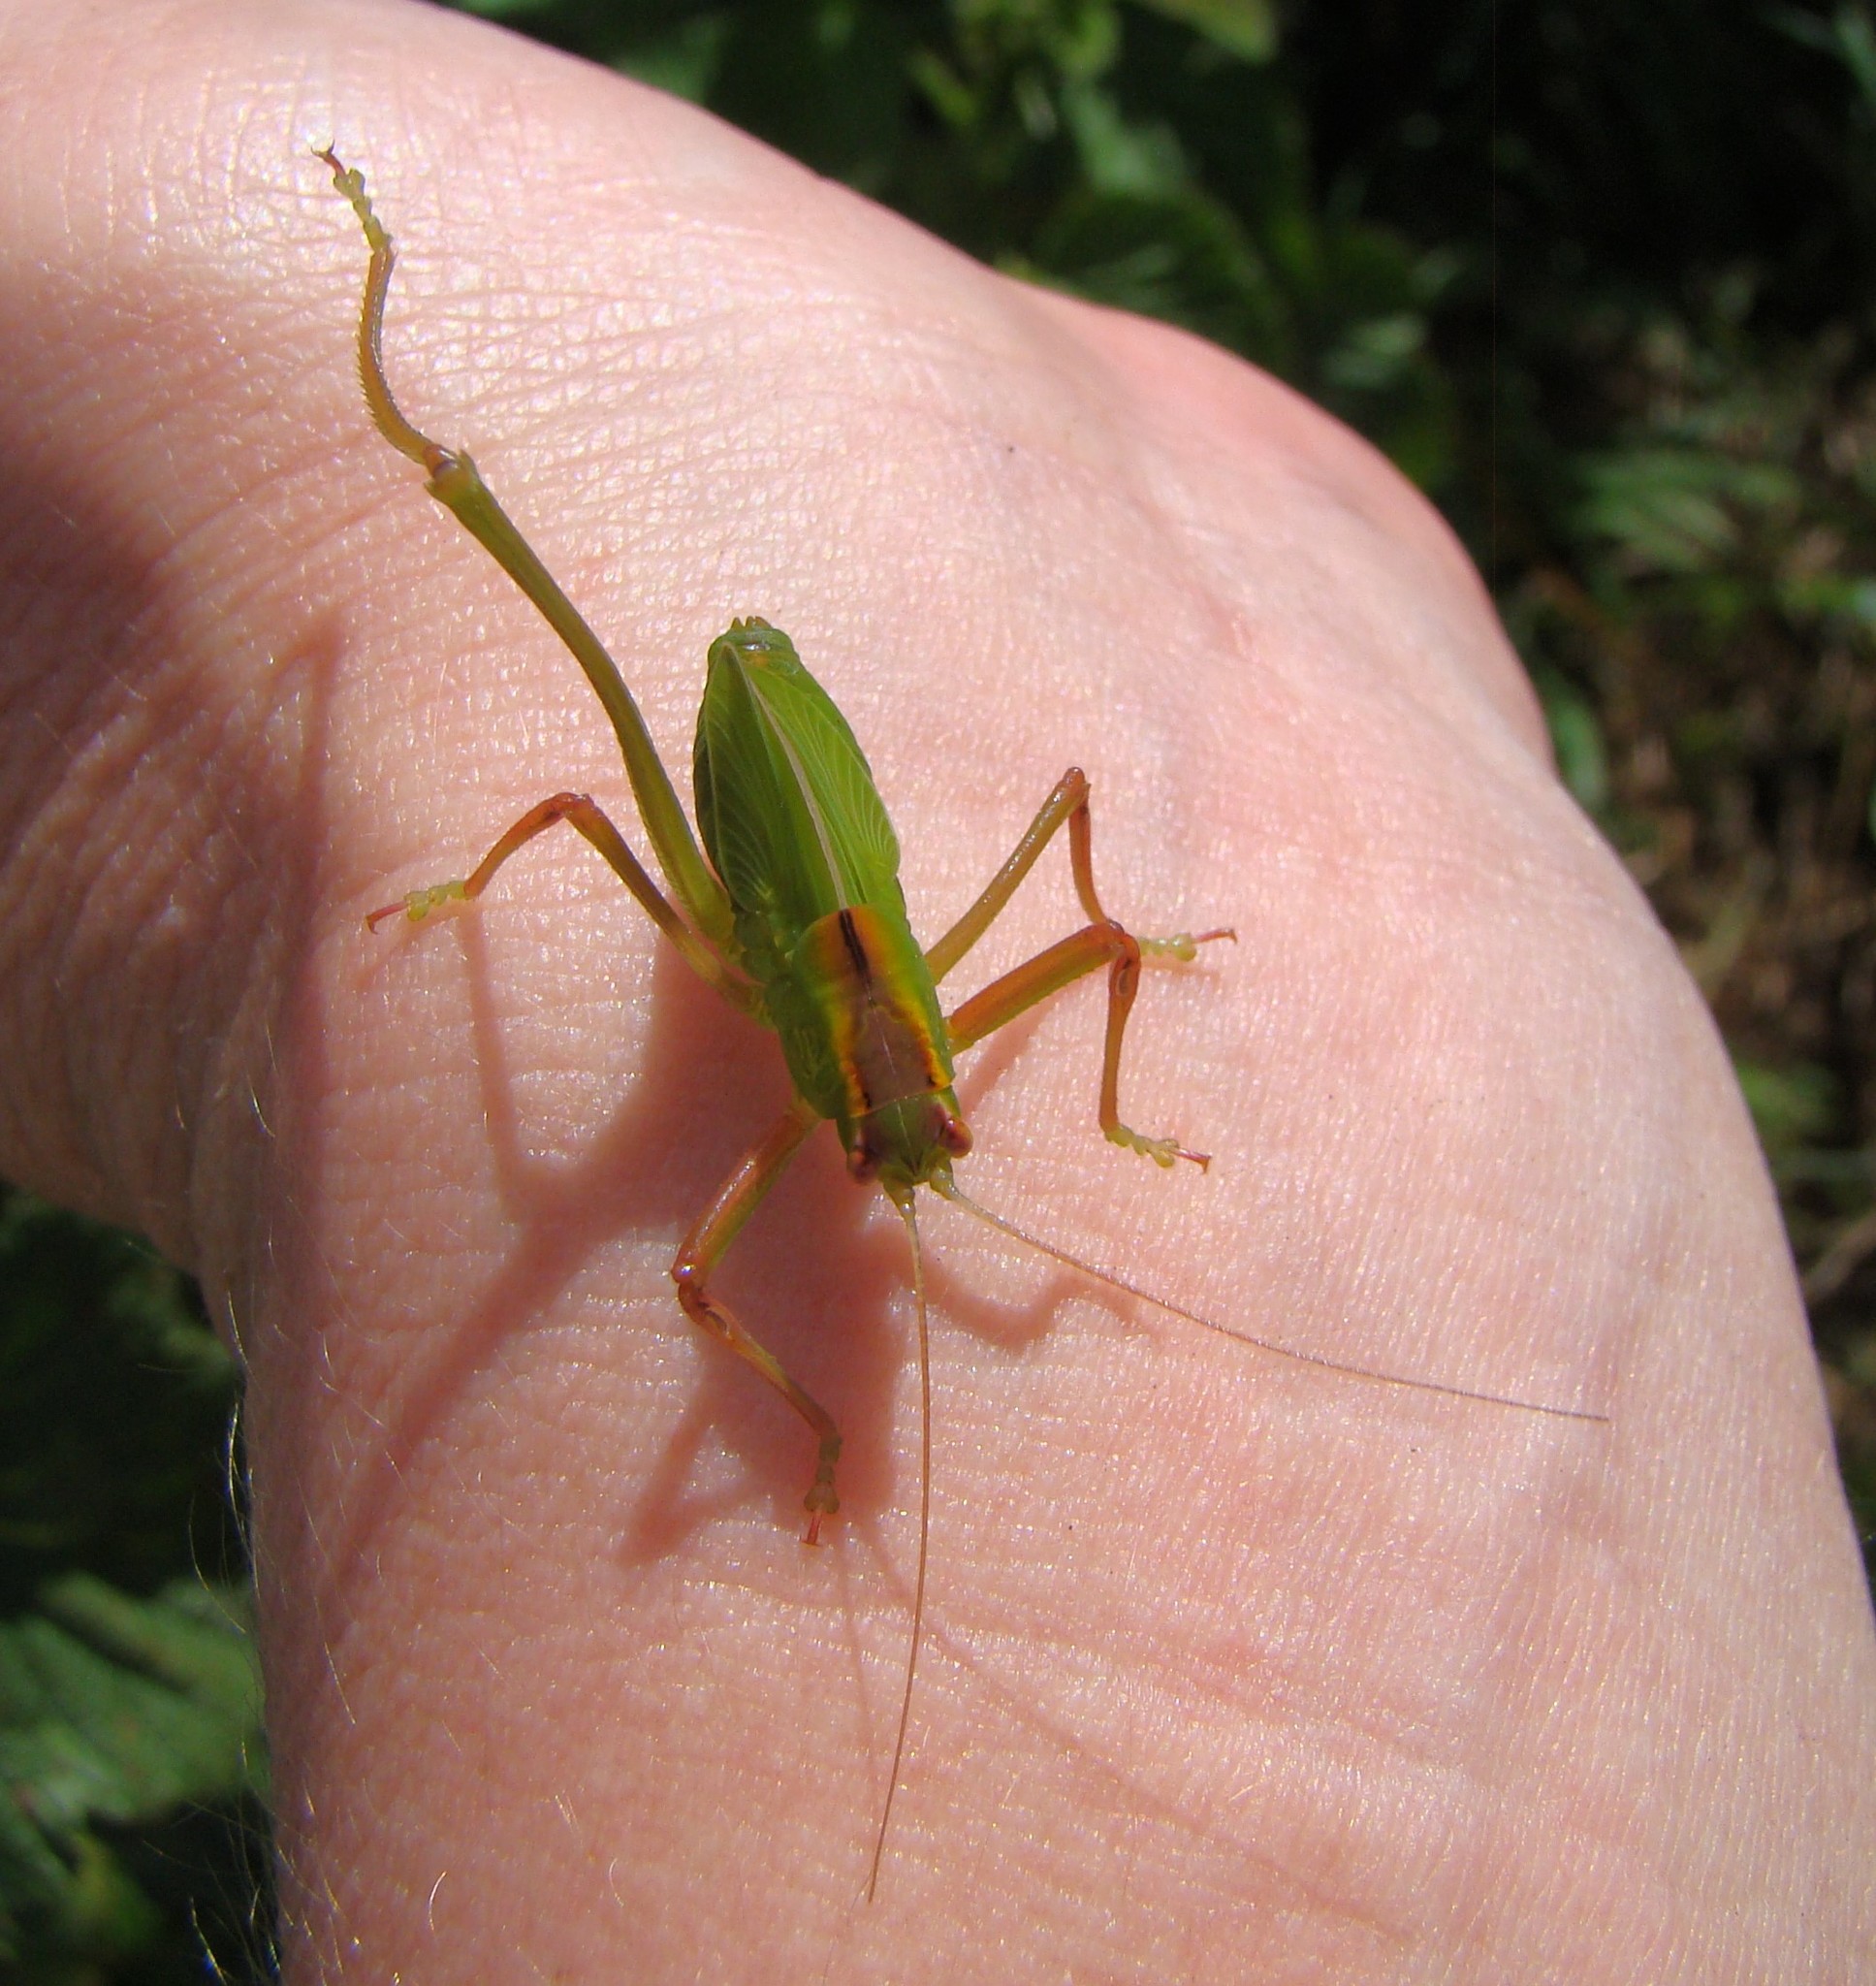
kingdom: Animalia
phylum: Arthropoda
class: Insecta
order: Orthoptera
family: Tettigoniidae
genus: Caedicia
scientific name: Caedicia simplex
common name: Common garden katydid
